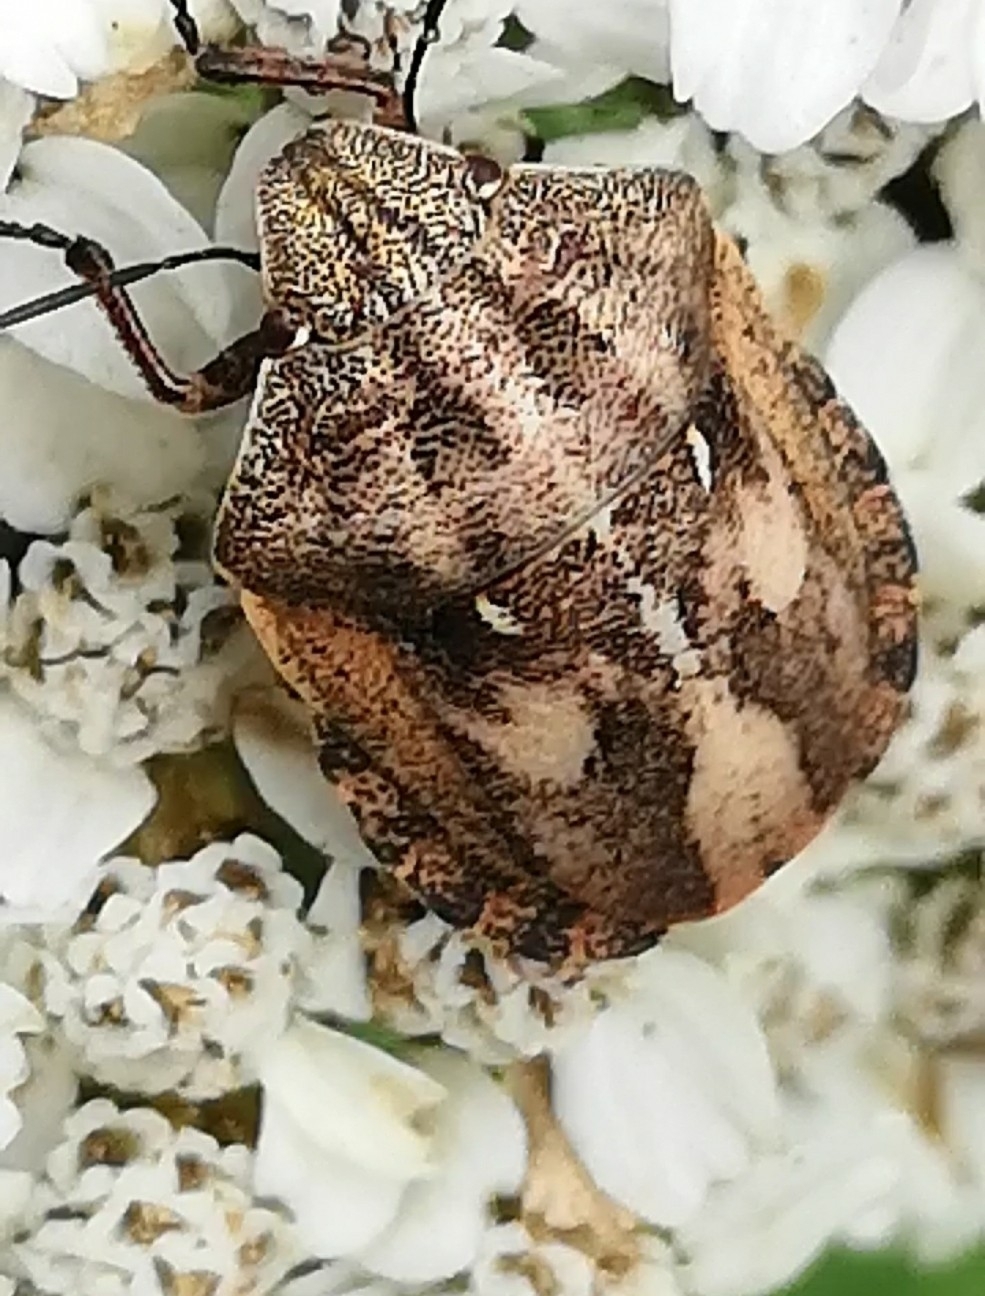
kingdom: Animalia
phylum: Arthropoda
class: Insecta
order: Hemiptera
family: Scutelleridae
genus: Eurygaster
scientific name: Eurygaster testudinaria
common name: Tortoise bug
